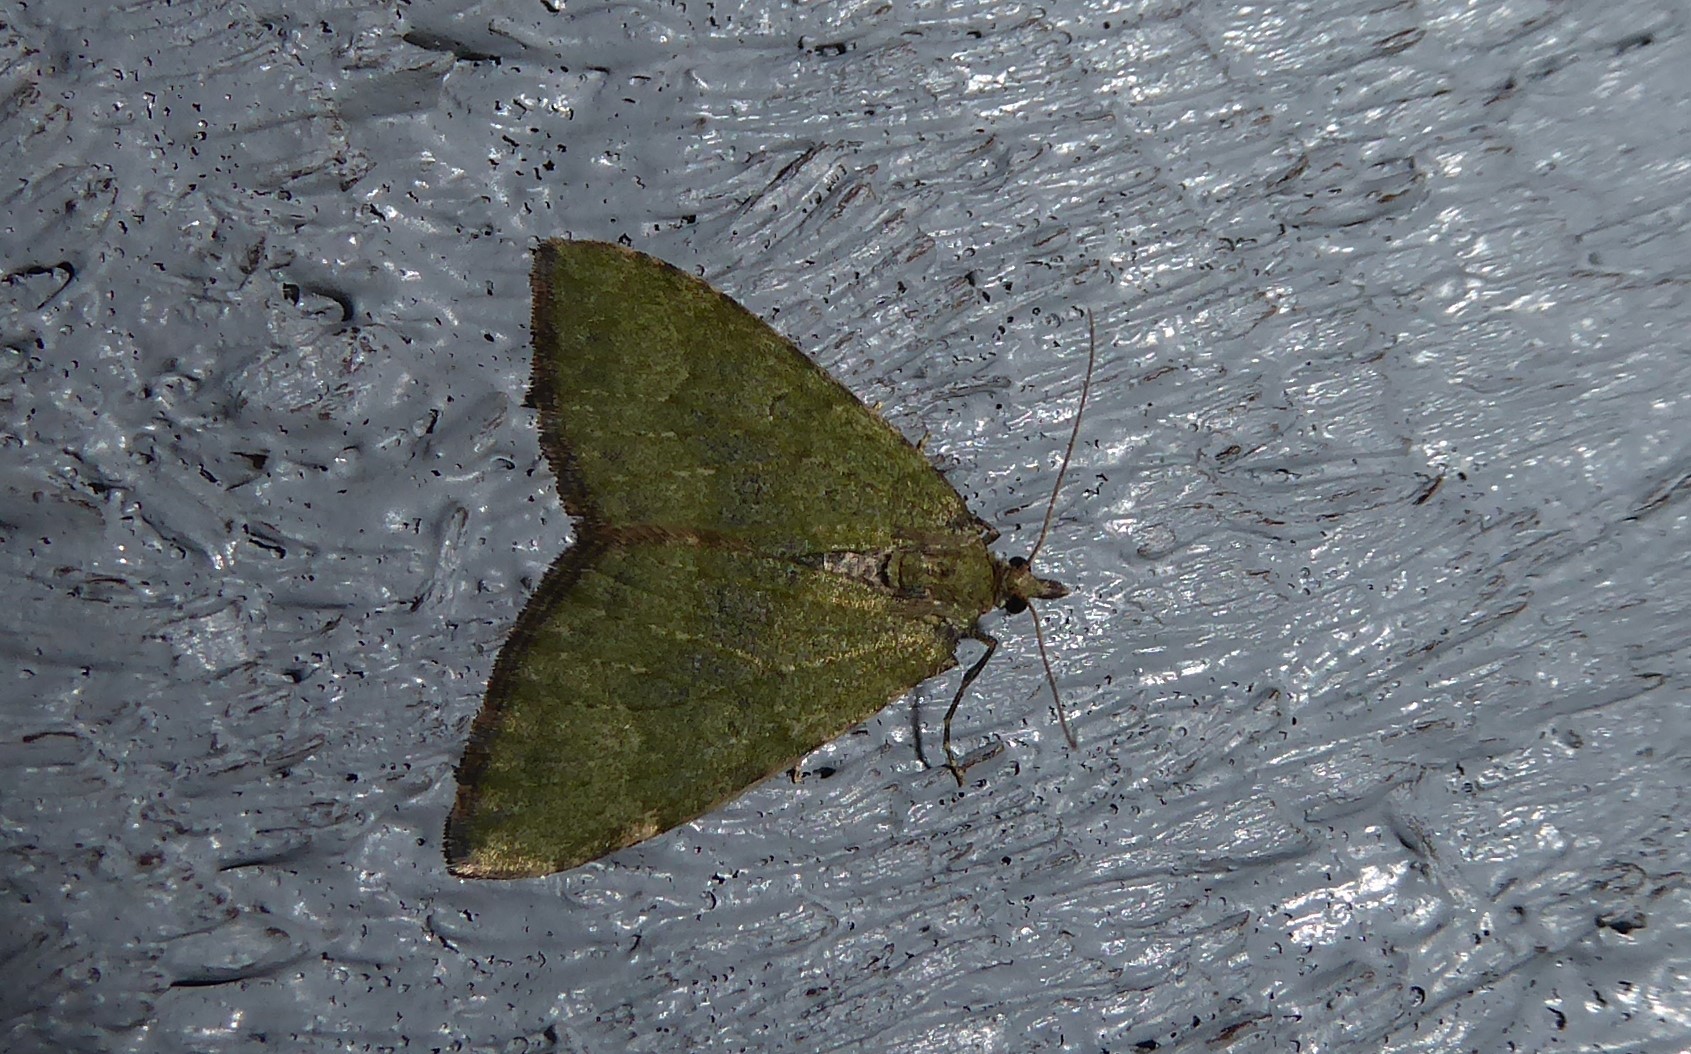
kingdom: Animalia
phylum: Arthropoda
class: Insecta
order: Lepidoptera
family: Geometridae
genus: Epyaxa
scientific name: Epyaxa rosearia
